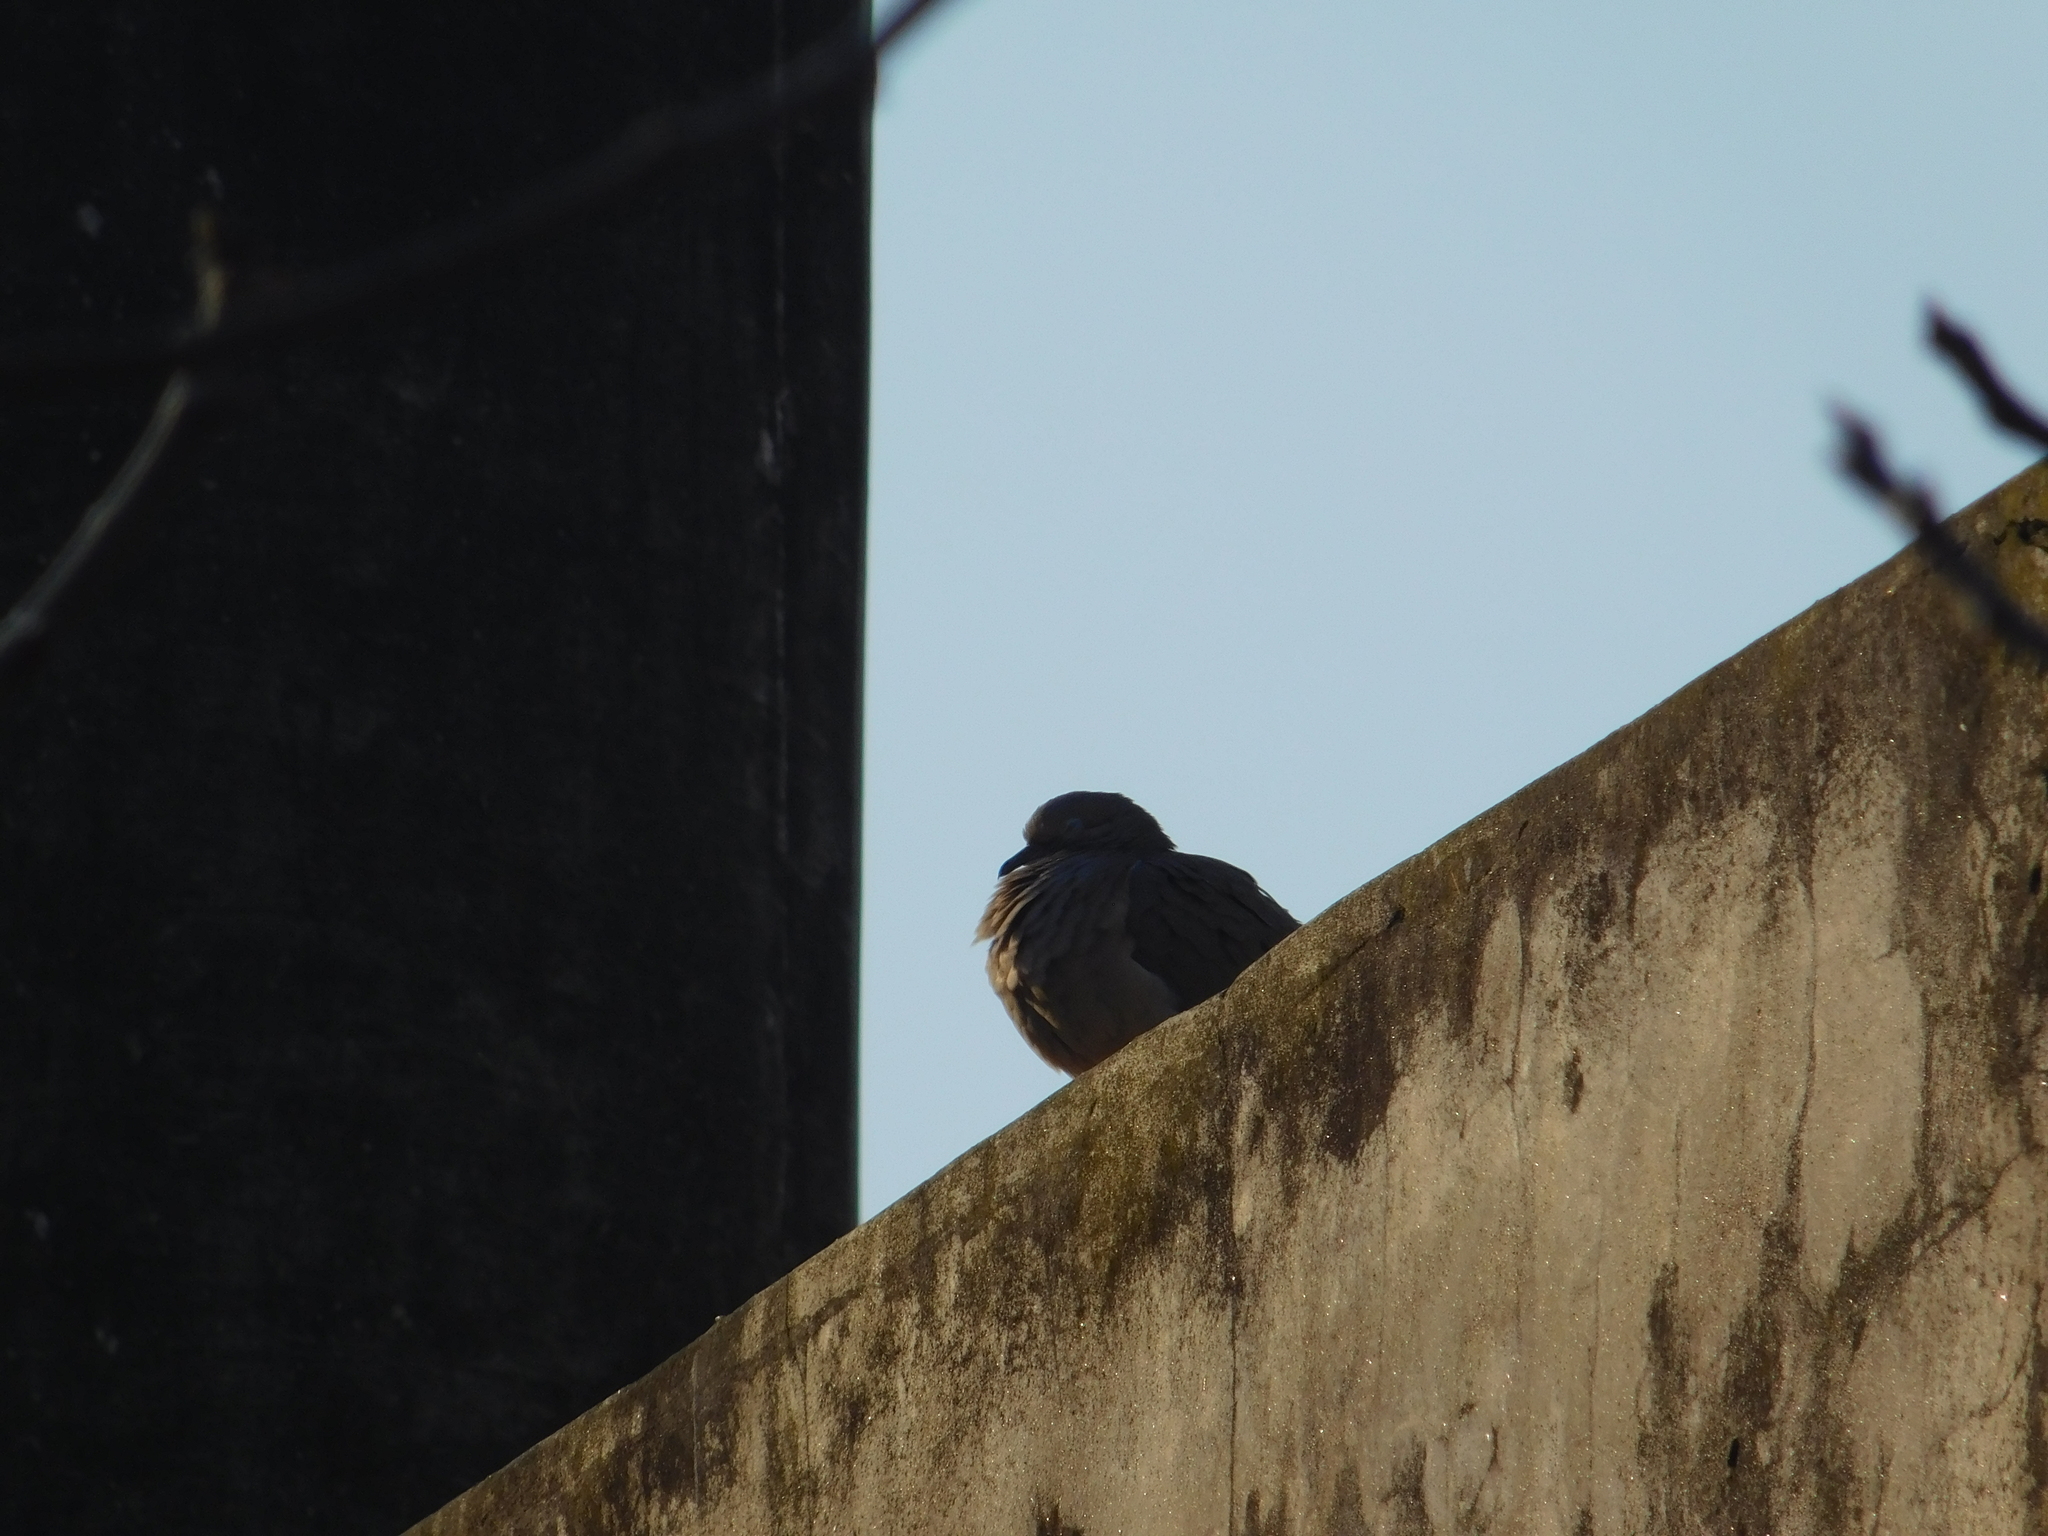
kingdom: Animalia
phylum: Chordata
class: Aves
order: Columbiformes
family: Columbidae
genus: Zenaida
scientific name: Zenaida auriculata
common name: Eared dove
